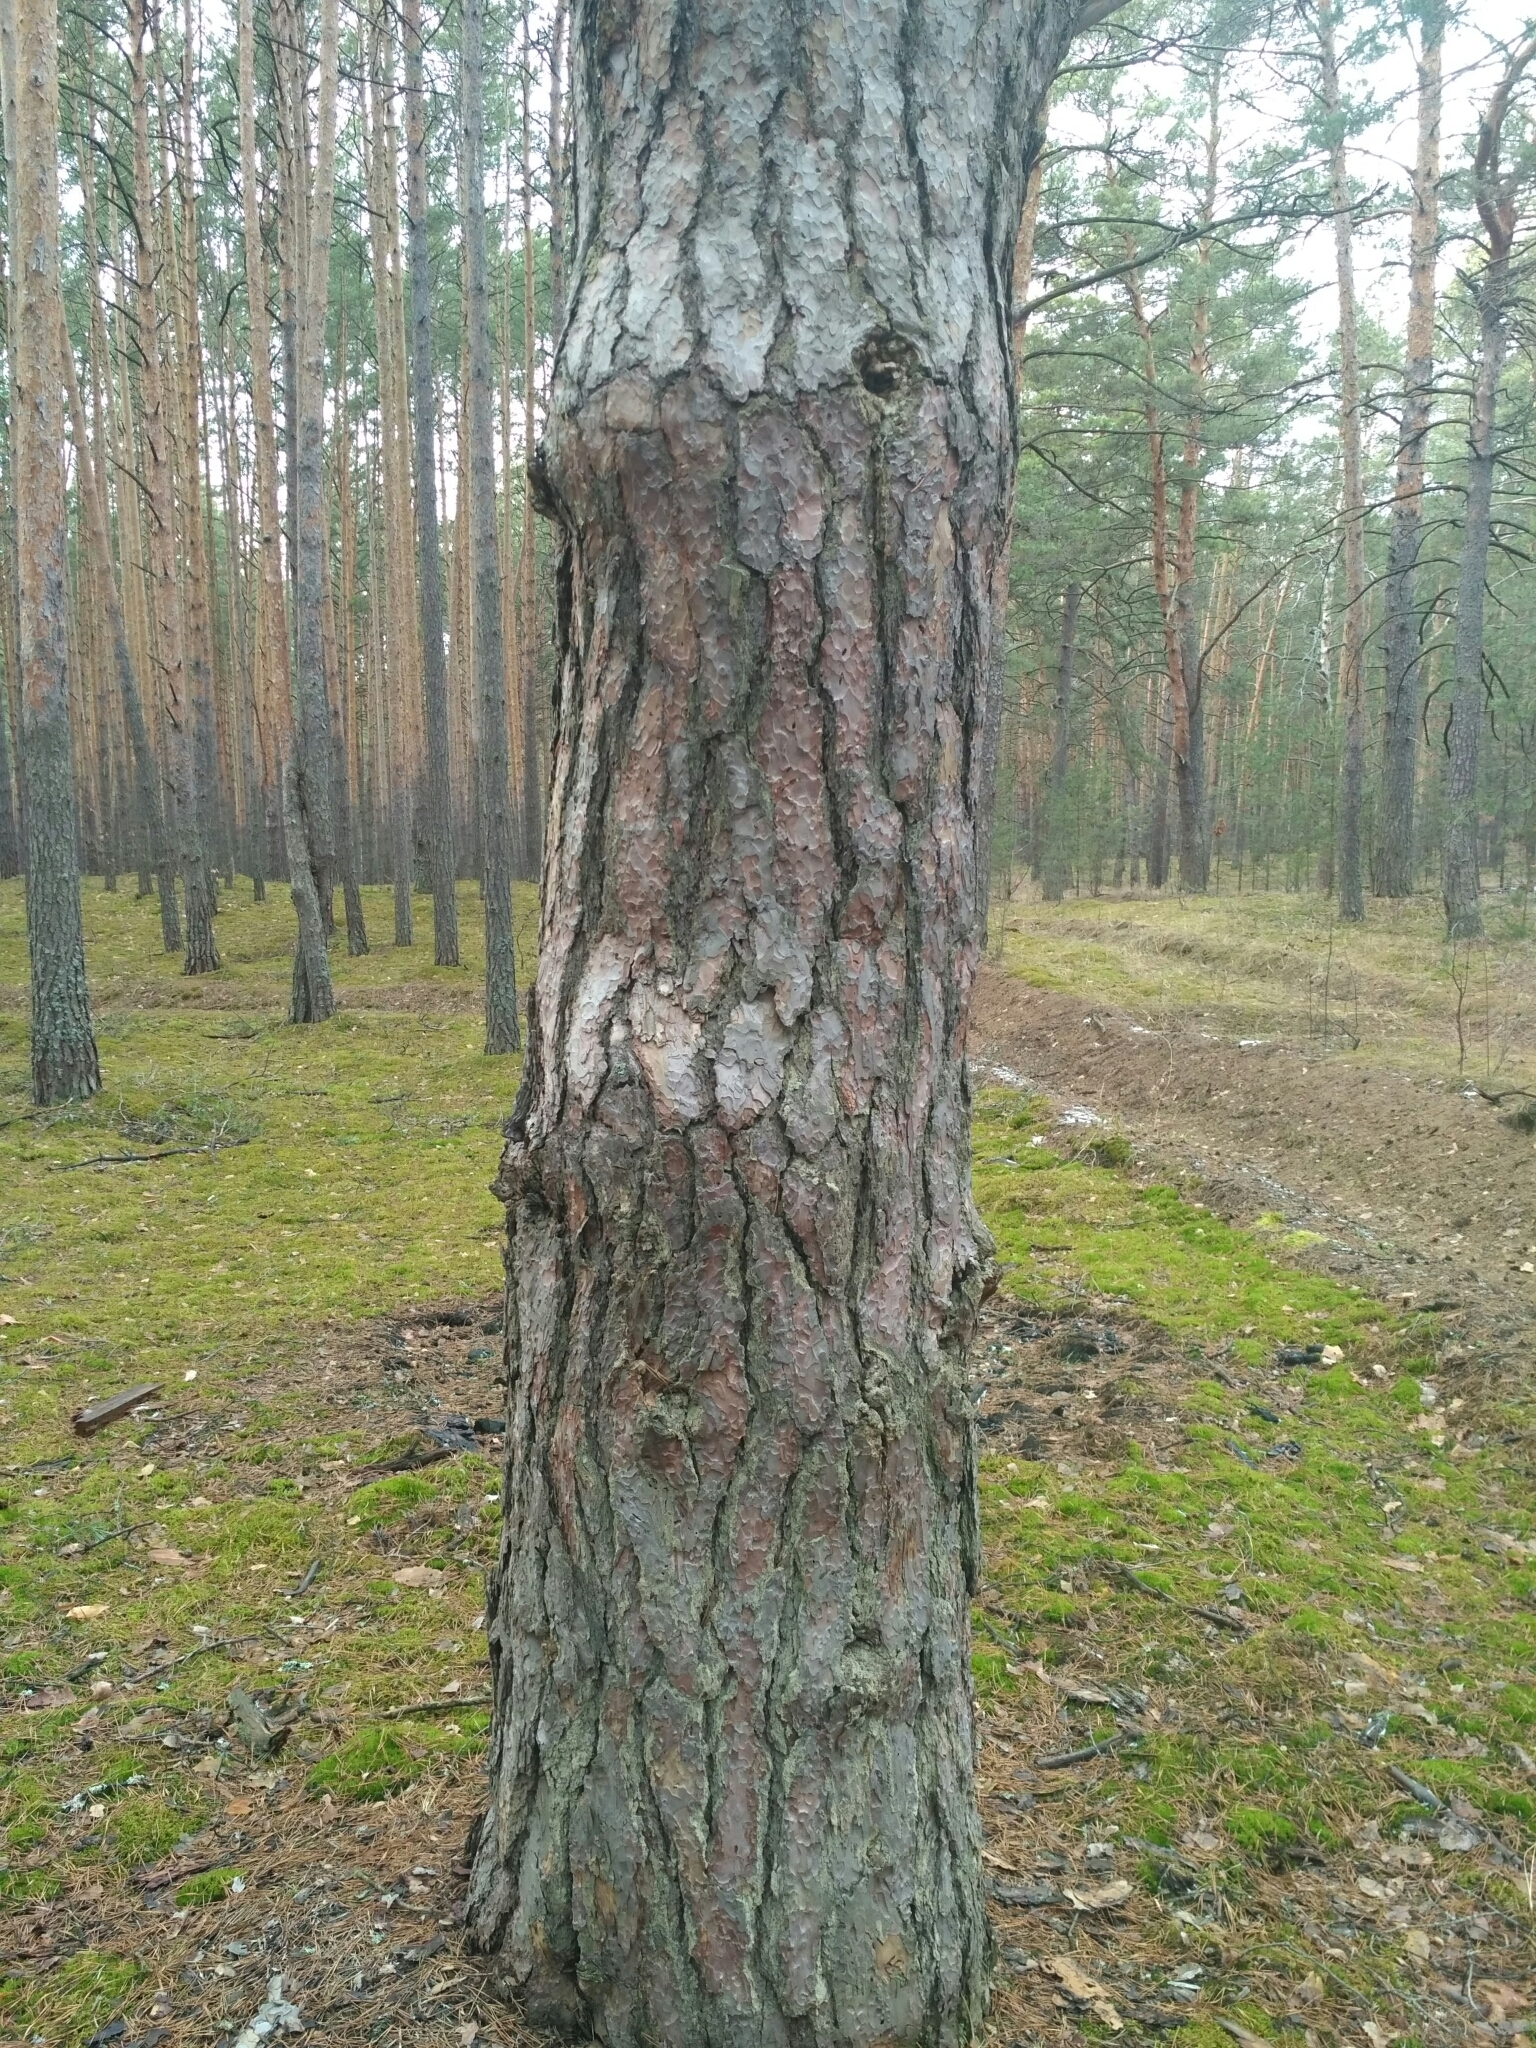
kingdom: Plantae
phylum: Tracheophyta
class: Pinopsida
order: Pinales
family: Pinaceae
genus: Pinus
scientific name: Pinus sylvestris
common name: Scots pine
